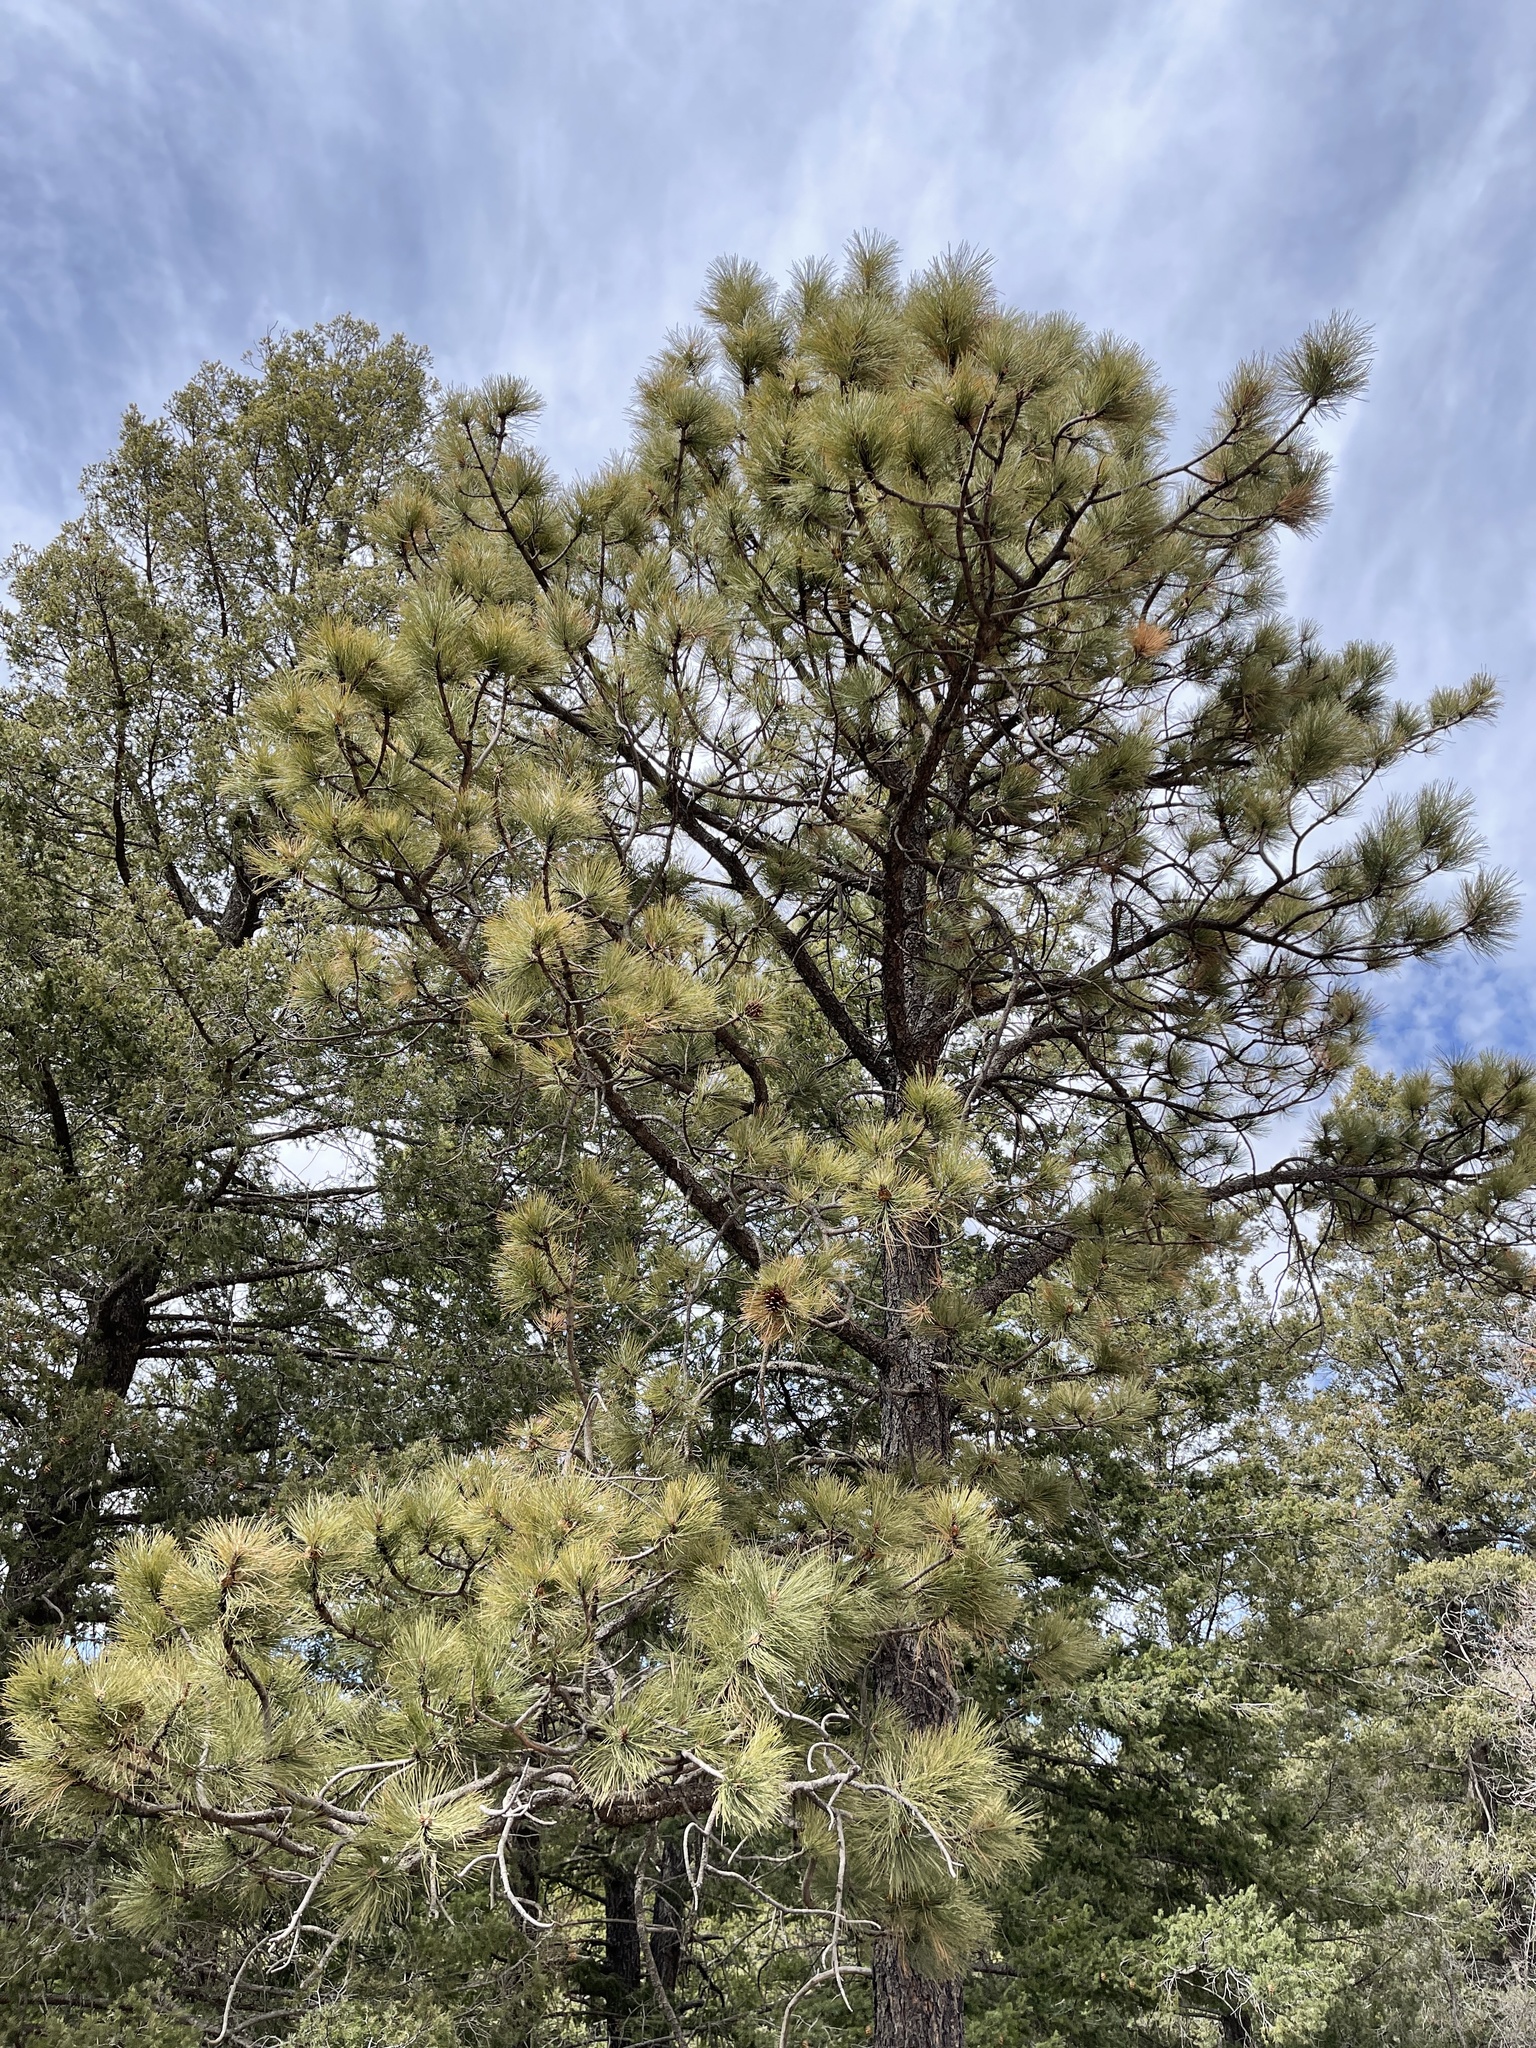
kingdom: Plantae
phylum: Tracheophyta
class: Pinopsida
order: Pinales
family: Pinaceae
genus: Pinus
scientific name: Pinus ponderosa
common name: Western yellow-pine
